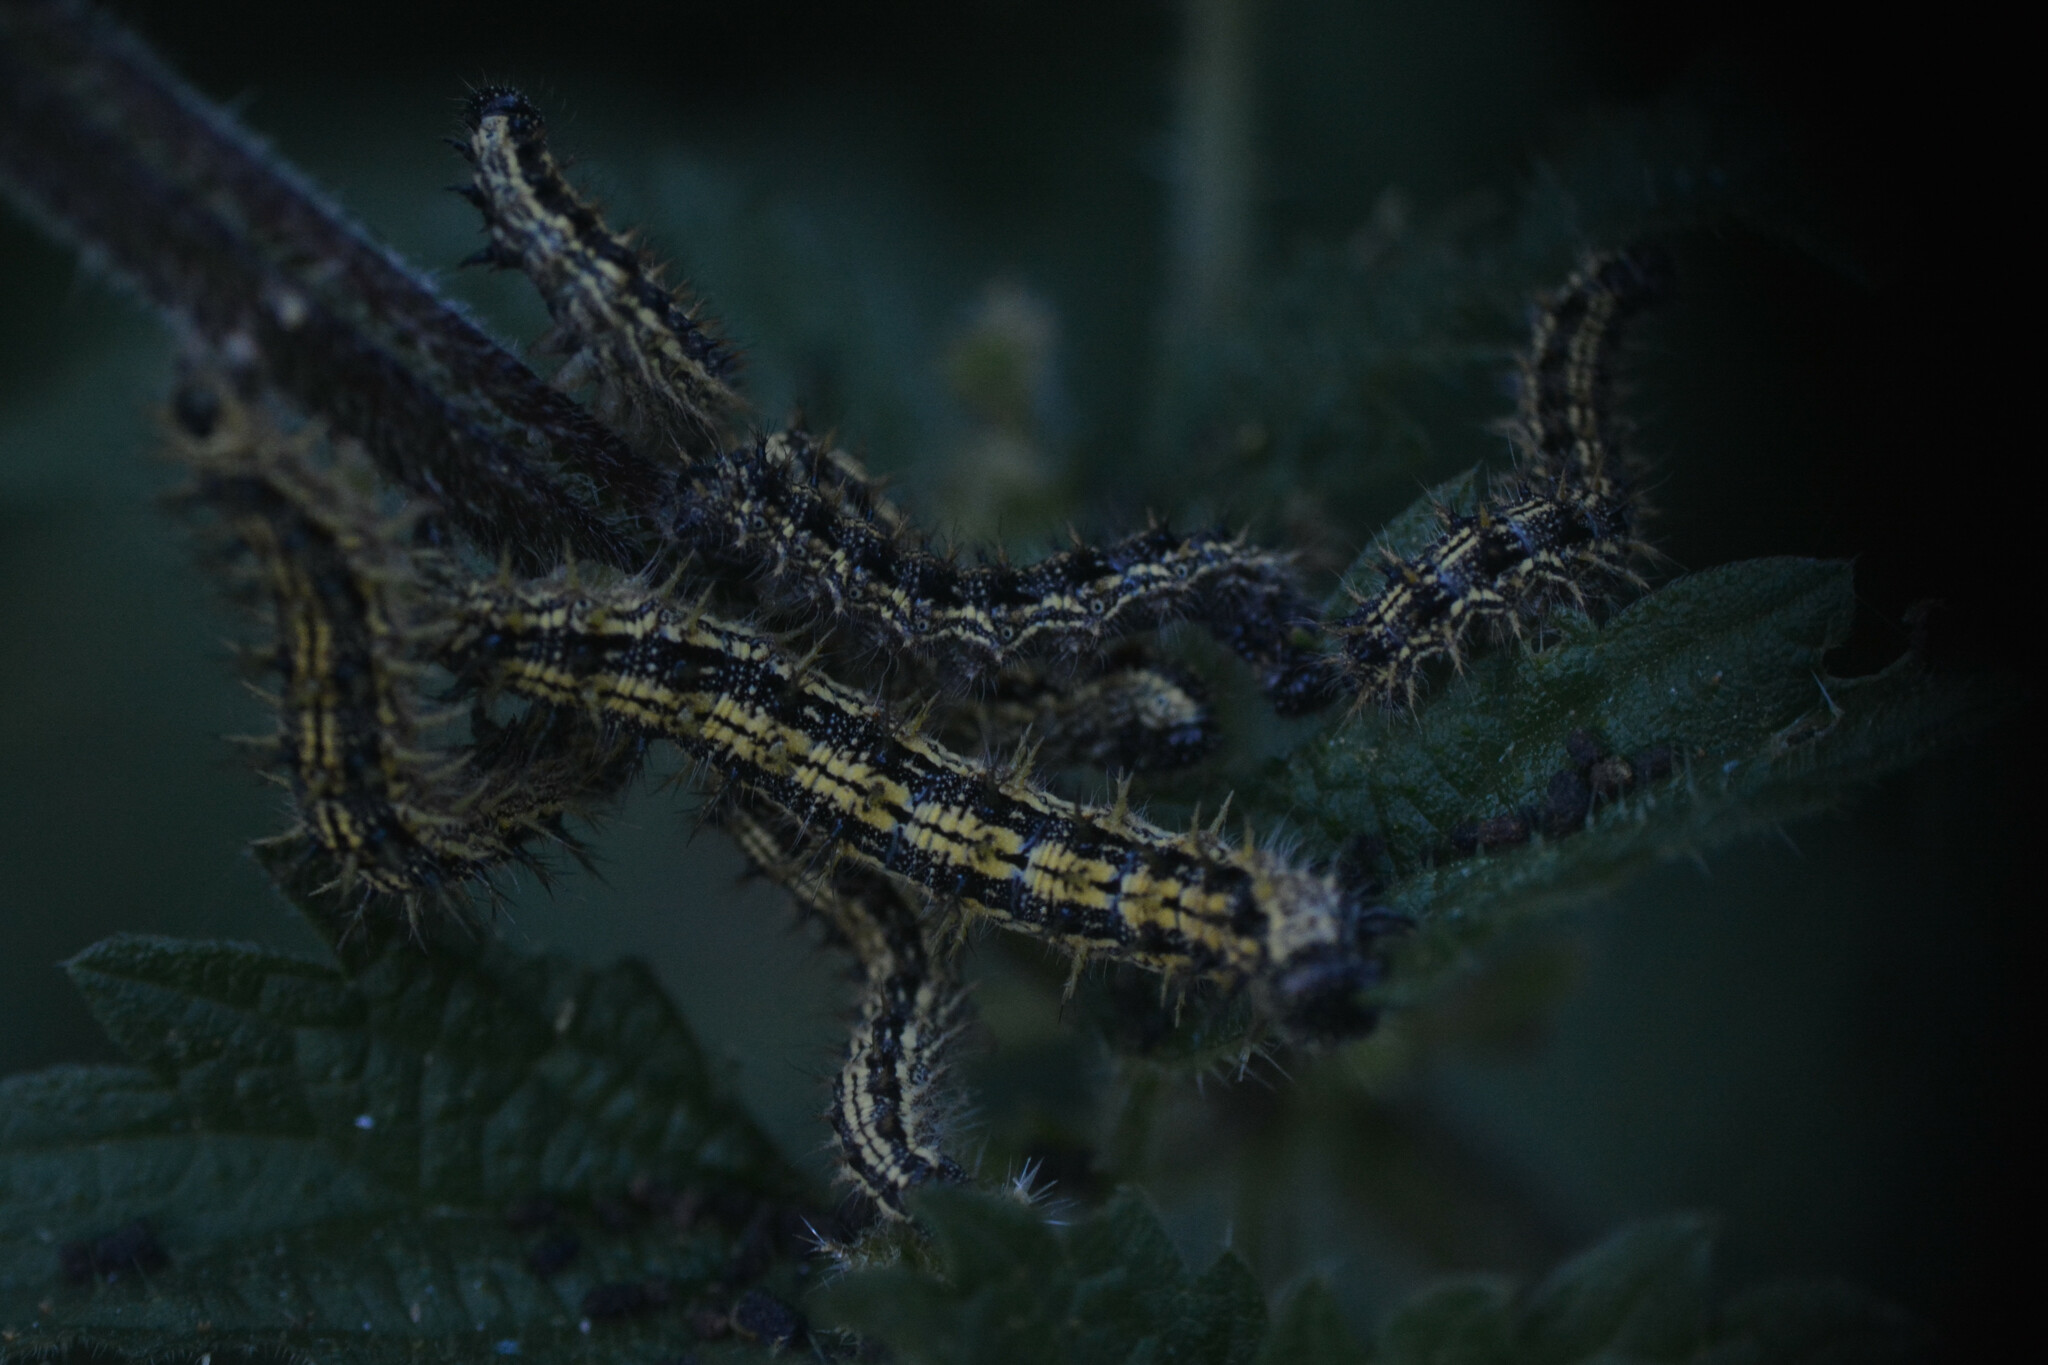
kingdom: Animalia
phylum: Arthropoda
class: Insecta
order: Lepidoptera
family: Nymphalidae
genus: Aglais
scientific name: Aglais urticae
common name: Small tortoiseshell
